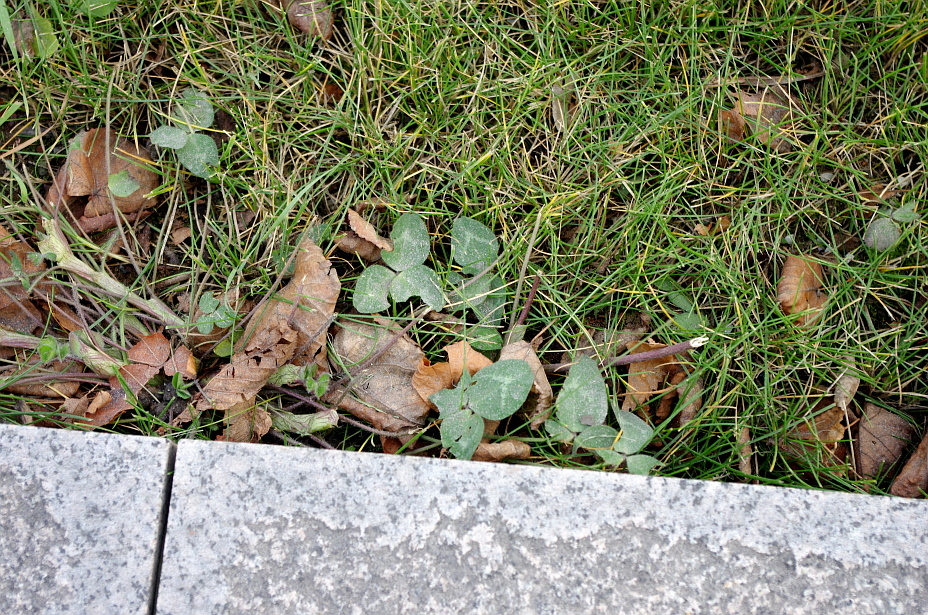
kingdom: Plantae
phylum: Tracheophyta
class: Magnoliopsida
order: Fabales
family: Fabaceae
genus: Trifolium
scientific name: Trifolium pratense
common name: Red clover
